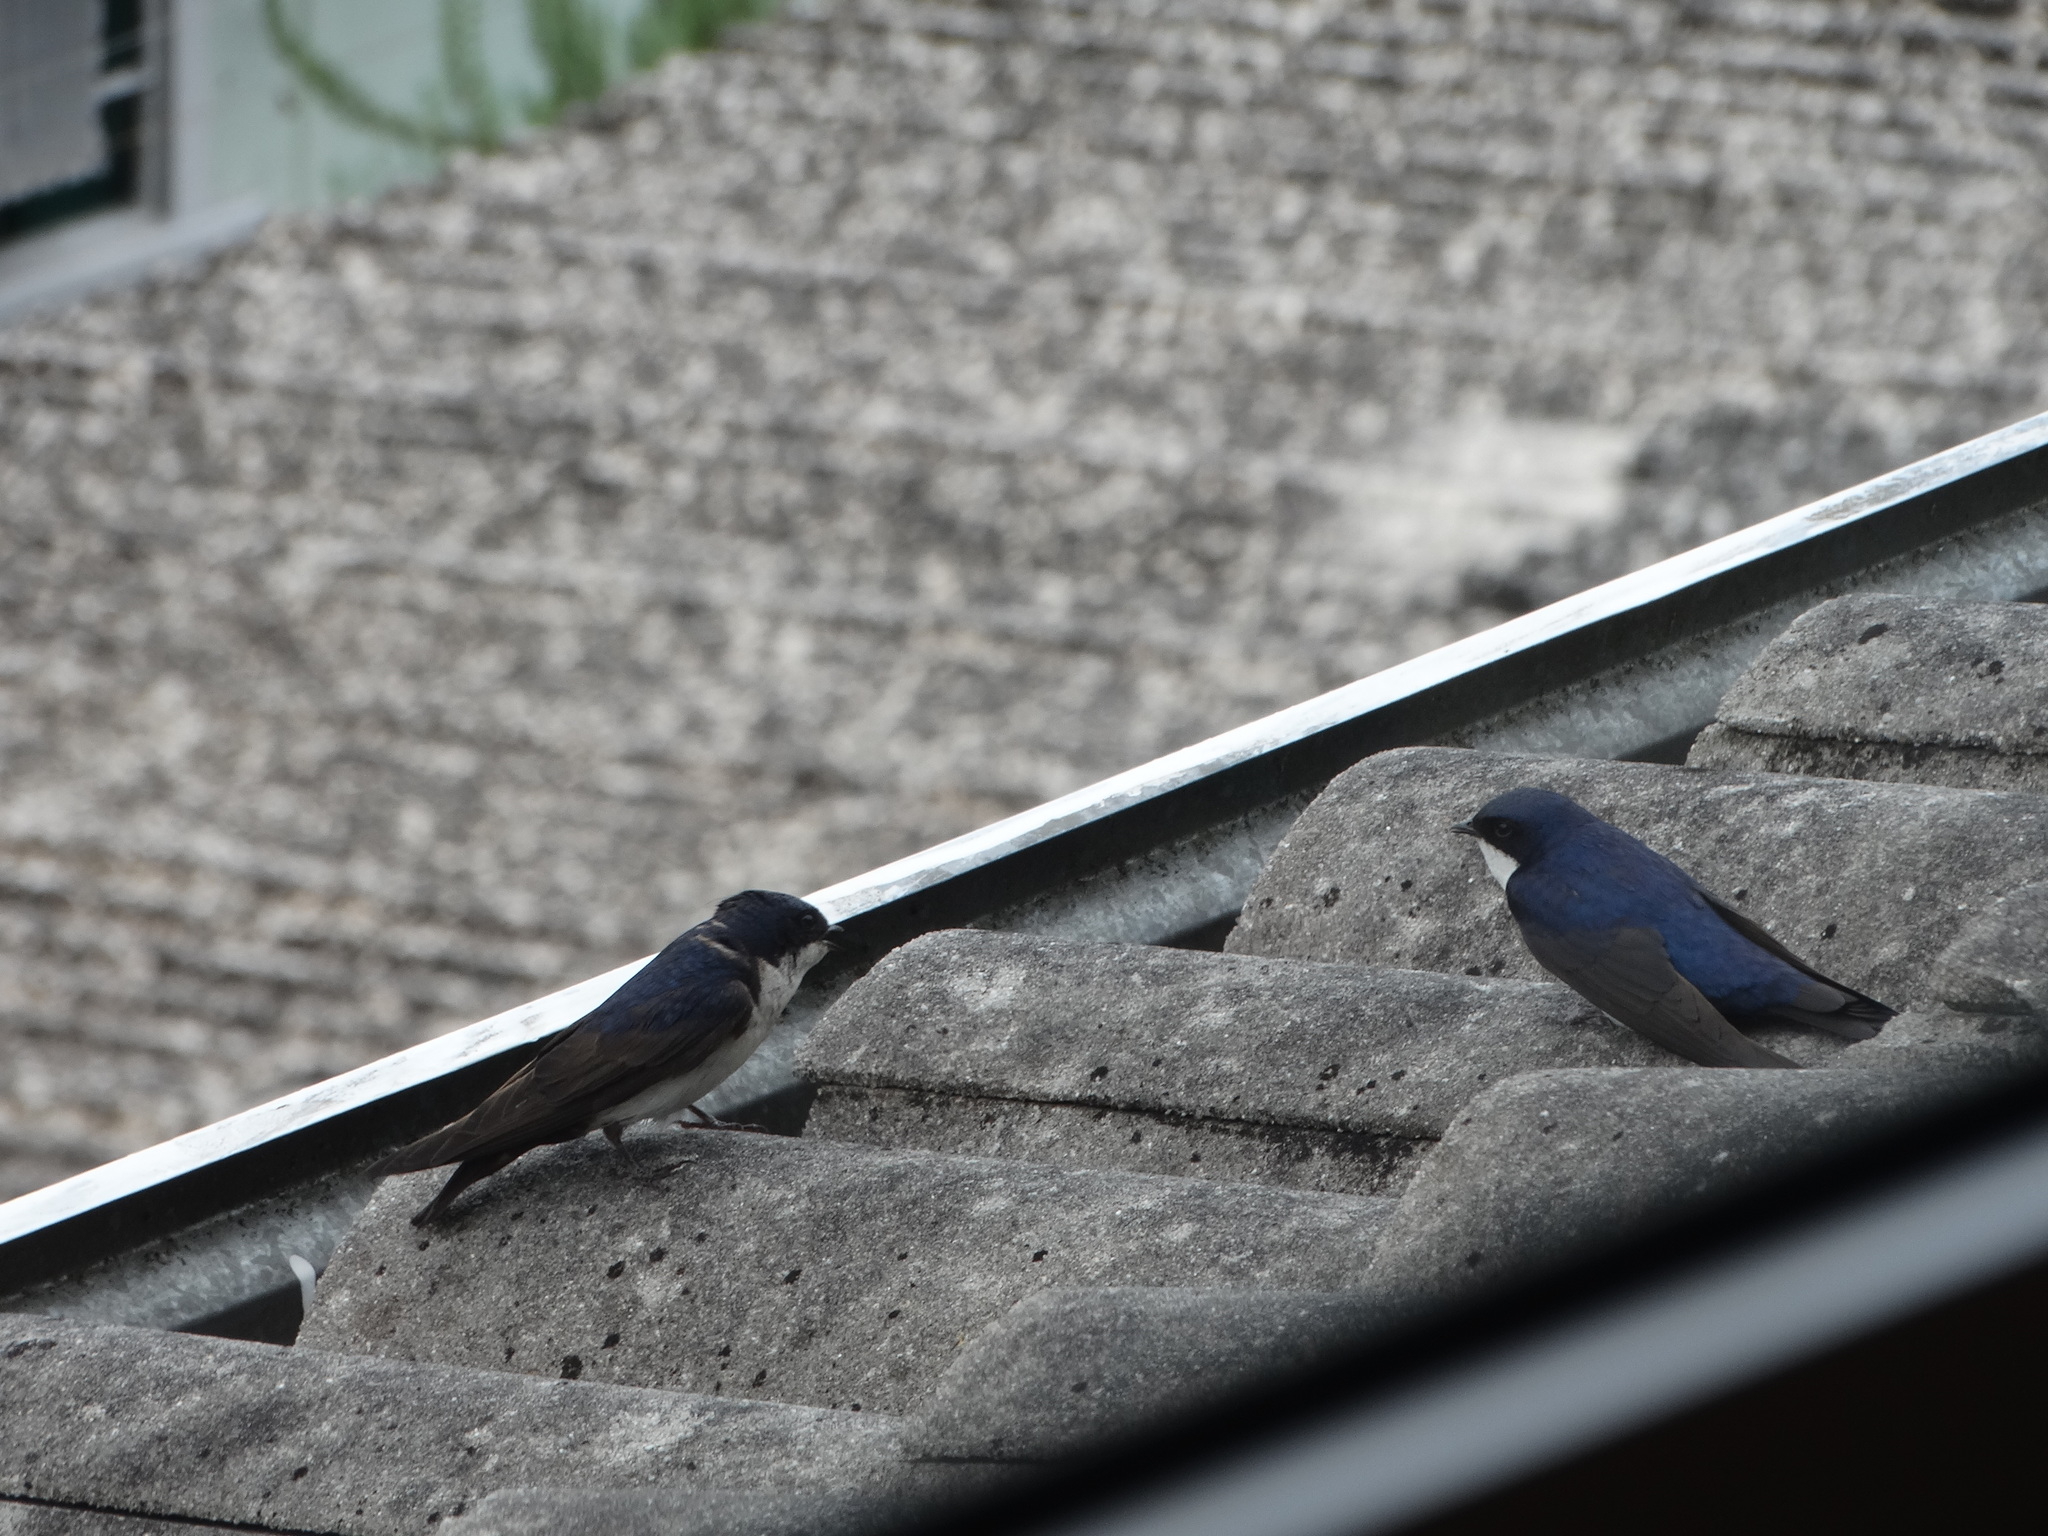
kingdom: Animalia
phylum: Chordata
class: Aves
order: Passeriformes
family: Hirundinidae
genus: Notiochelidon
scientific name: Notiochelidon cyanoleuca
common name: Blue-and-white swallow
